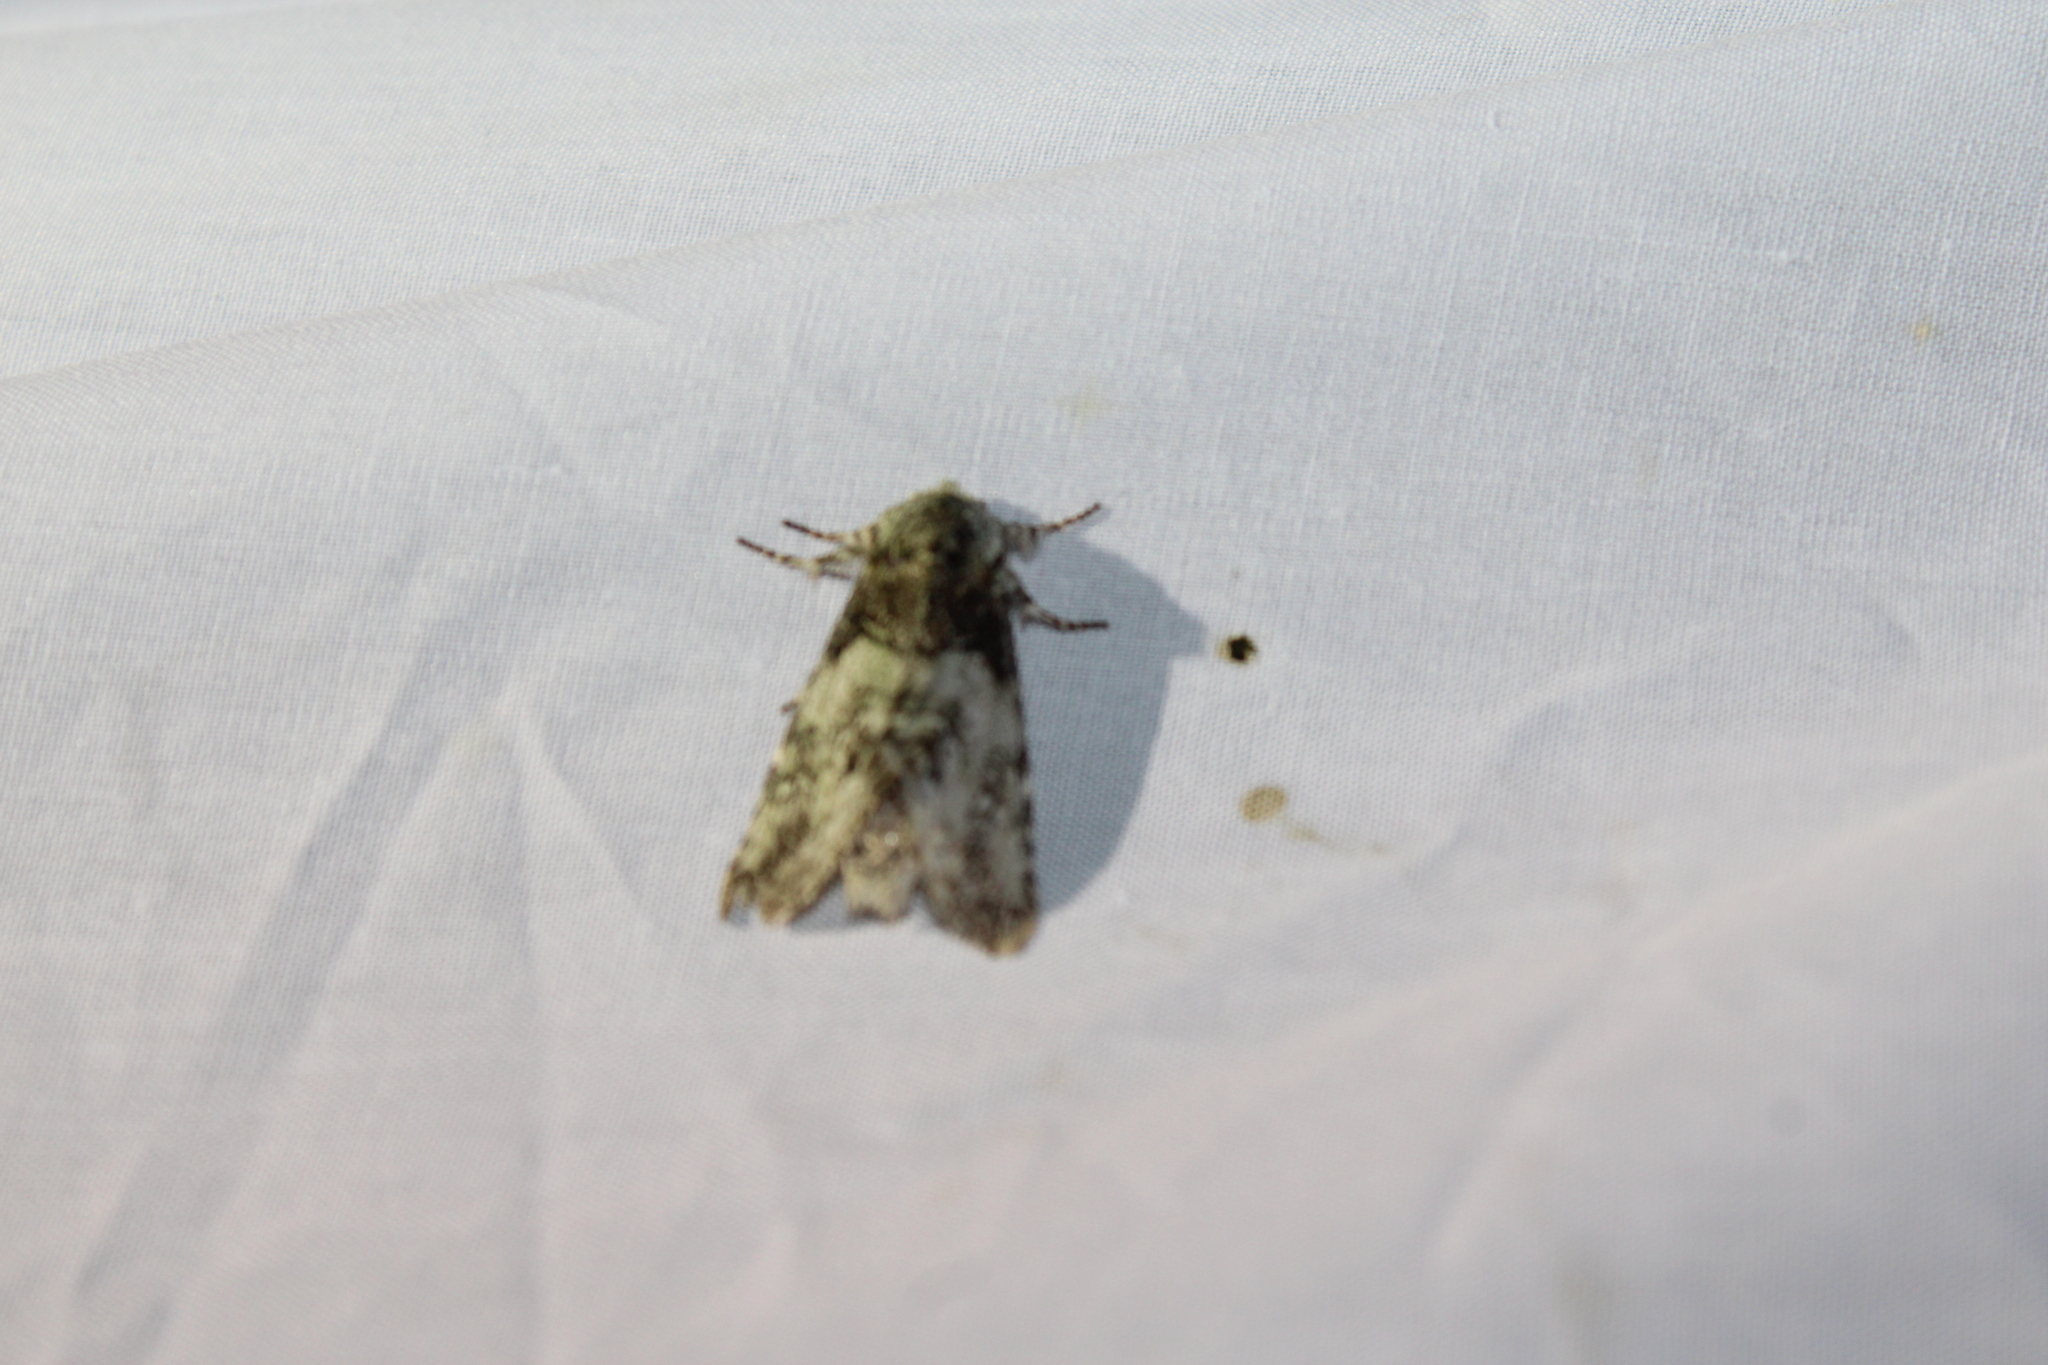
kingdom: Animalia
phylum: Arthropoda
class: Insecta
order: Lepidoptera
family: Notodontidae
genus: Macrurocampa
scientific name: Macrurocampa marthesia
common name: Mottled prominent
